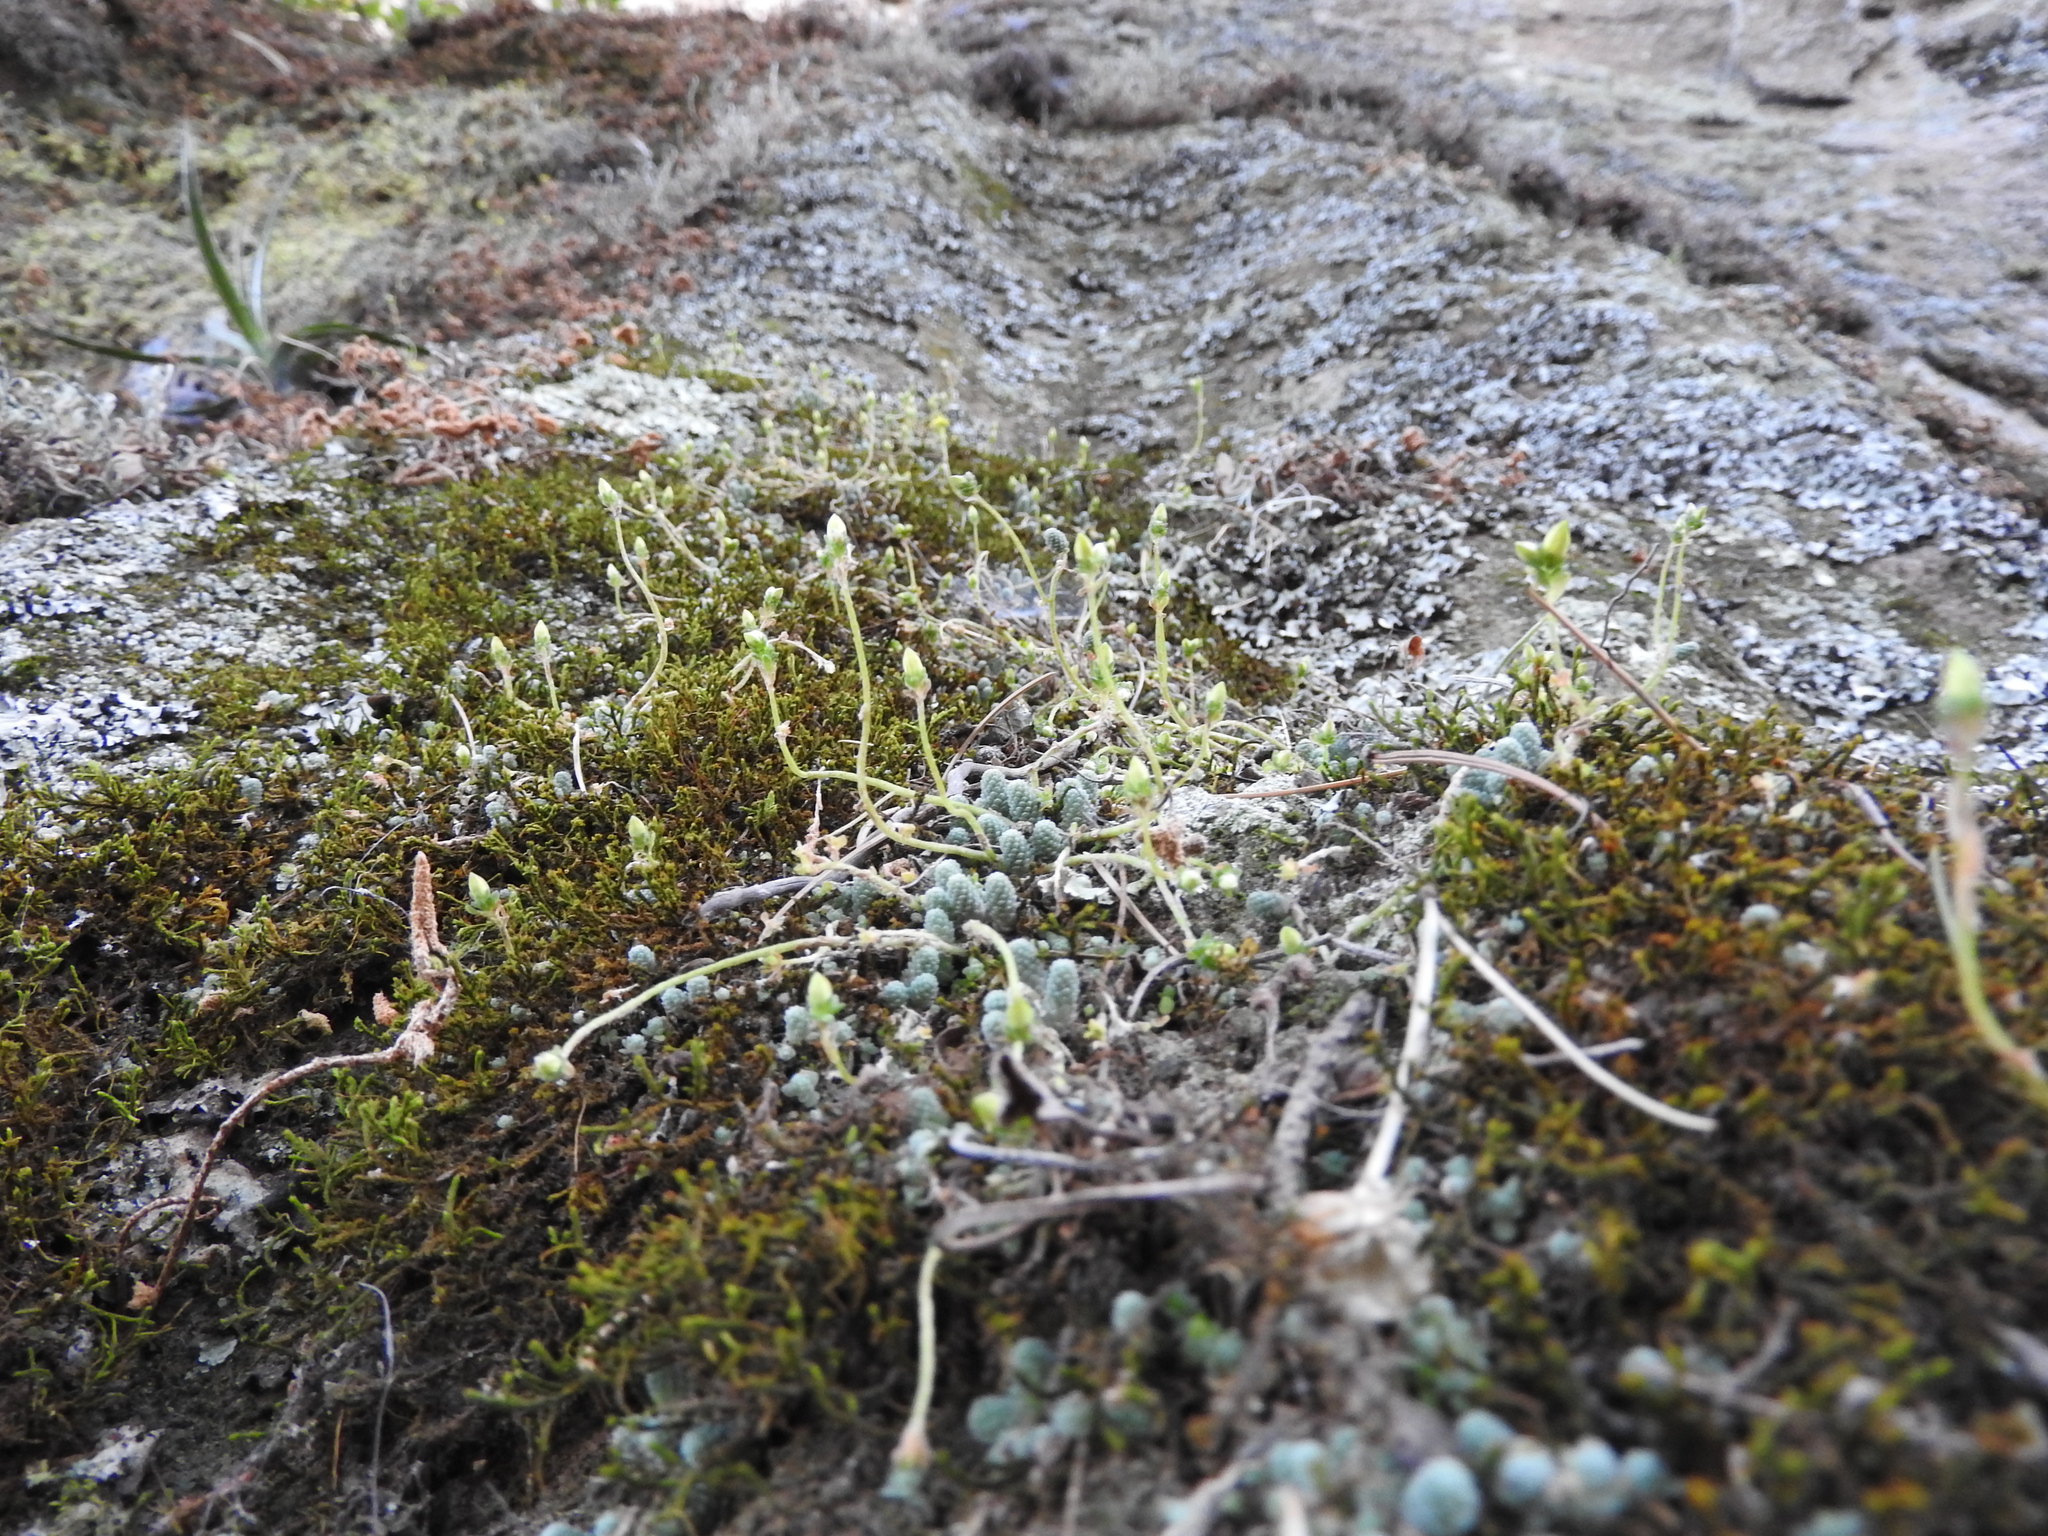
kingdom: Plantae
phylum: Tracheophyta
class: Magnoliopsida
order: Saxifragales
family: Crassulaceae
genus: Sedum
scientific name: Sedum greggii
